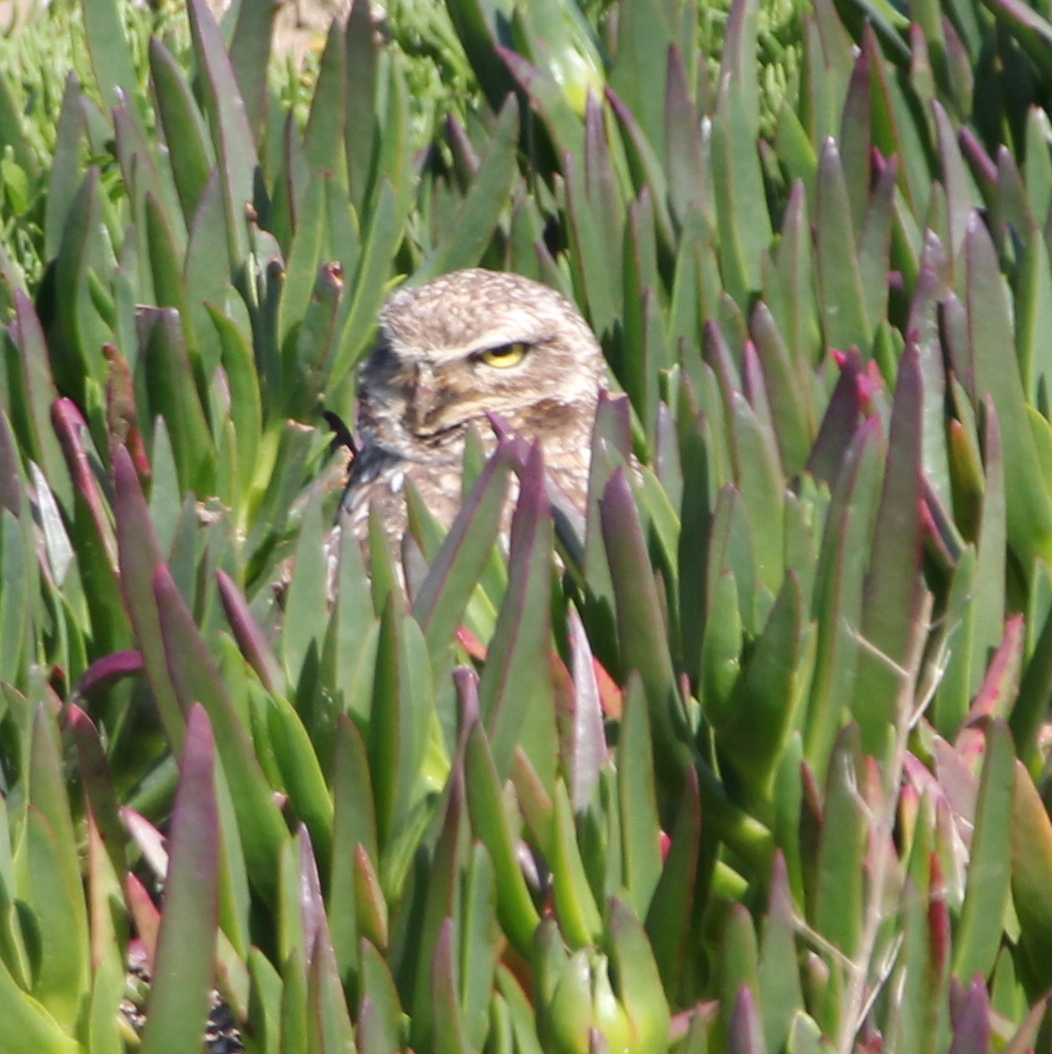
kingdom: Animalia
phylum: Chordata
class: Aves
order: Strigiformes
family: Strigidae
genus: Athene
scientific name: Athene cunicularia
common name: Burrowing owl
